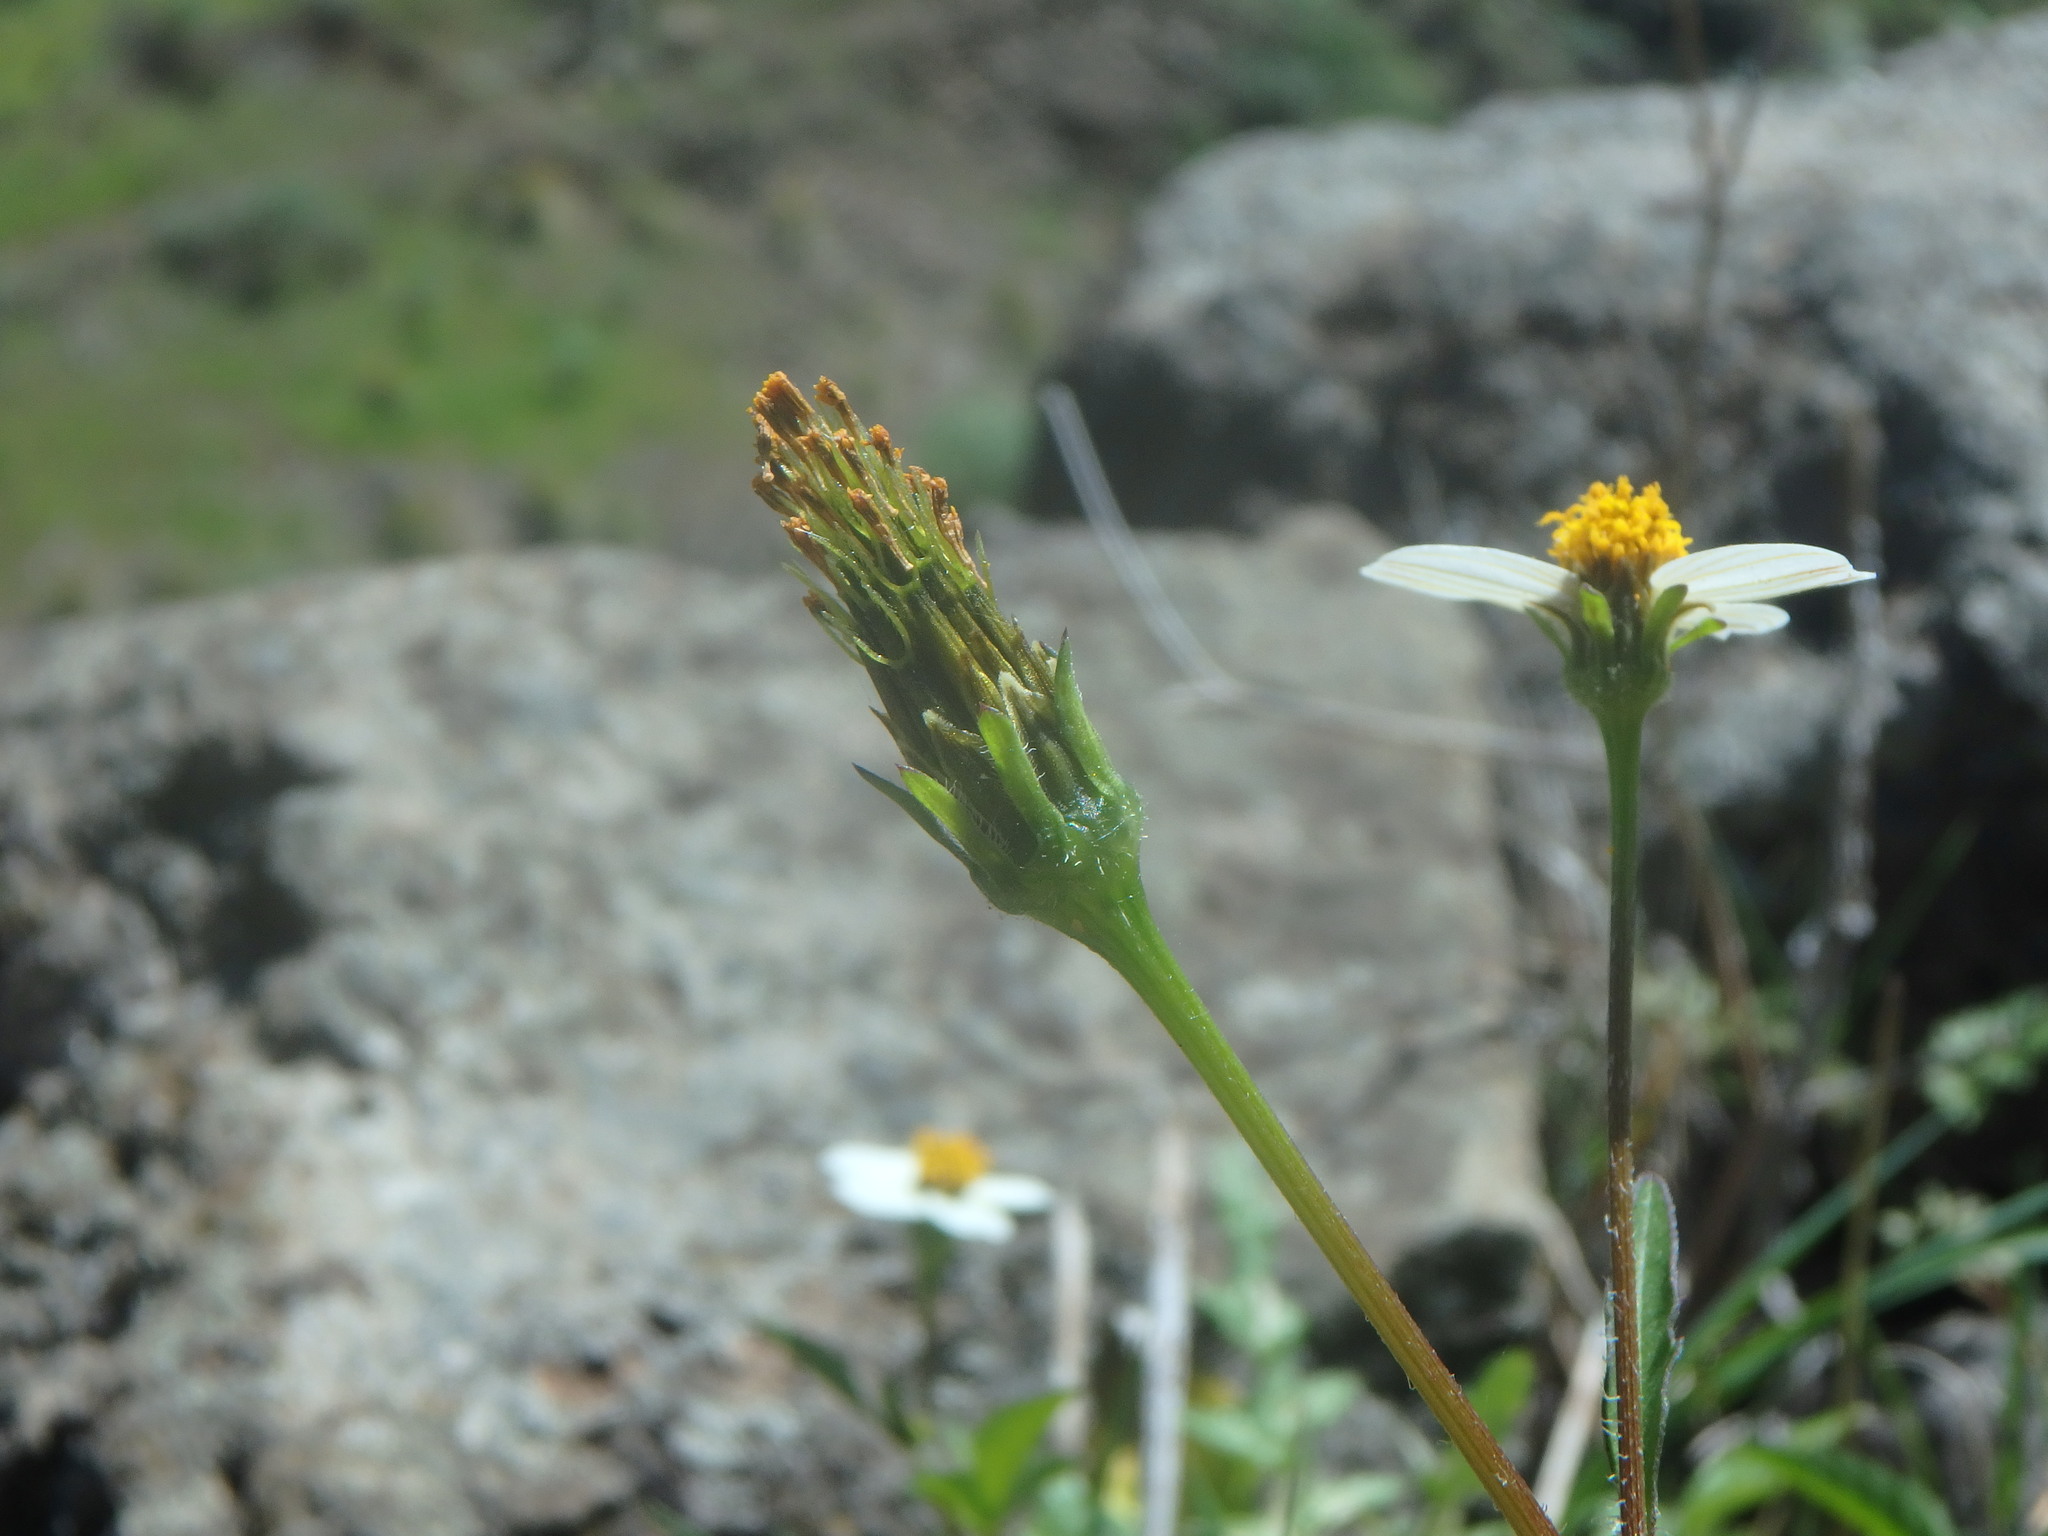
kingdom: Plantae
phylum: Tracheophyta
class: Magnoliopsida
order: Asterales
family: Asteraceae
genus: Bidens
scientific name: Bidens pilosa
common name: Black-jack
